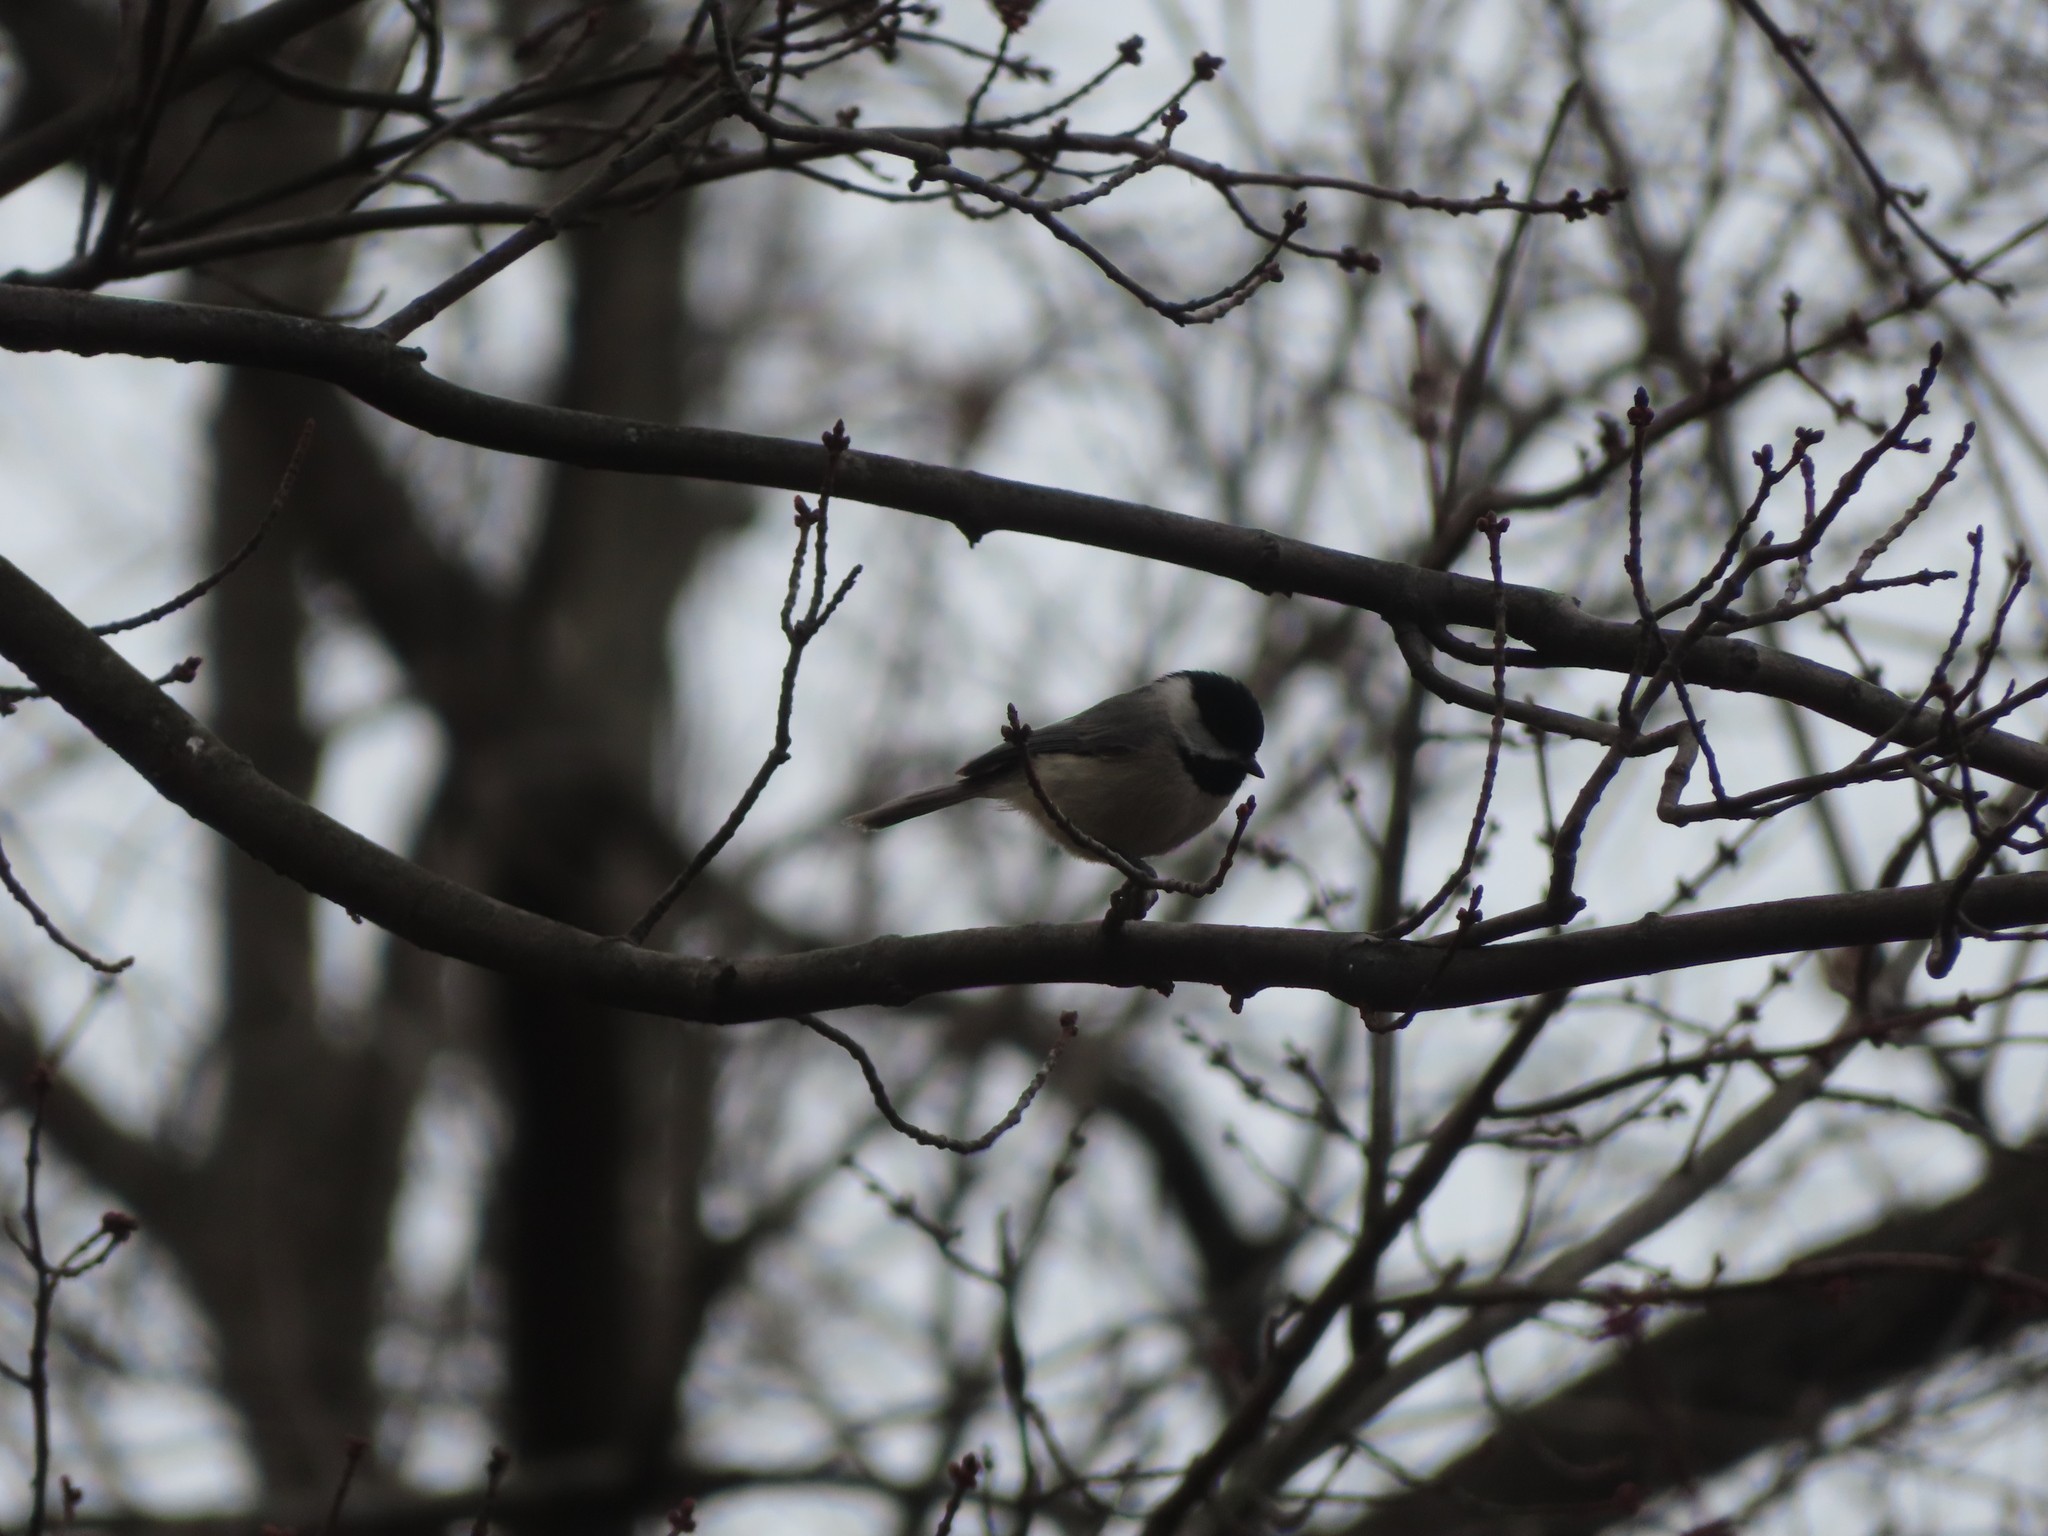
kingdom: Animalia
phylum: Chordata
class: Aves
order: Passeriformes
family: Paridae
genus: Poecile
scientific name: Poecile carolinensis
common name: Carolina chickadee
